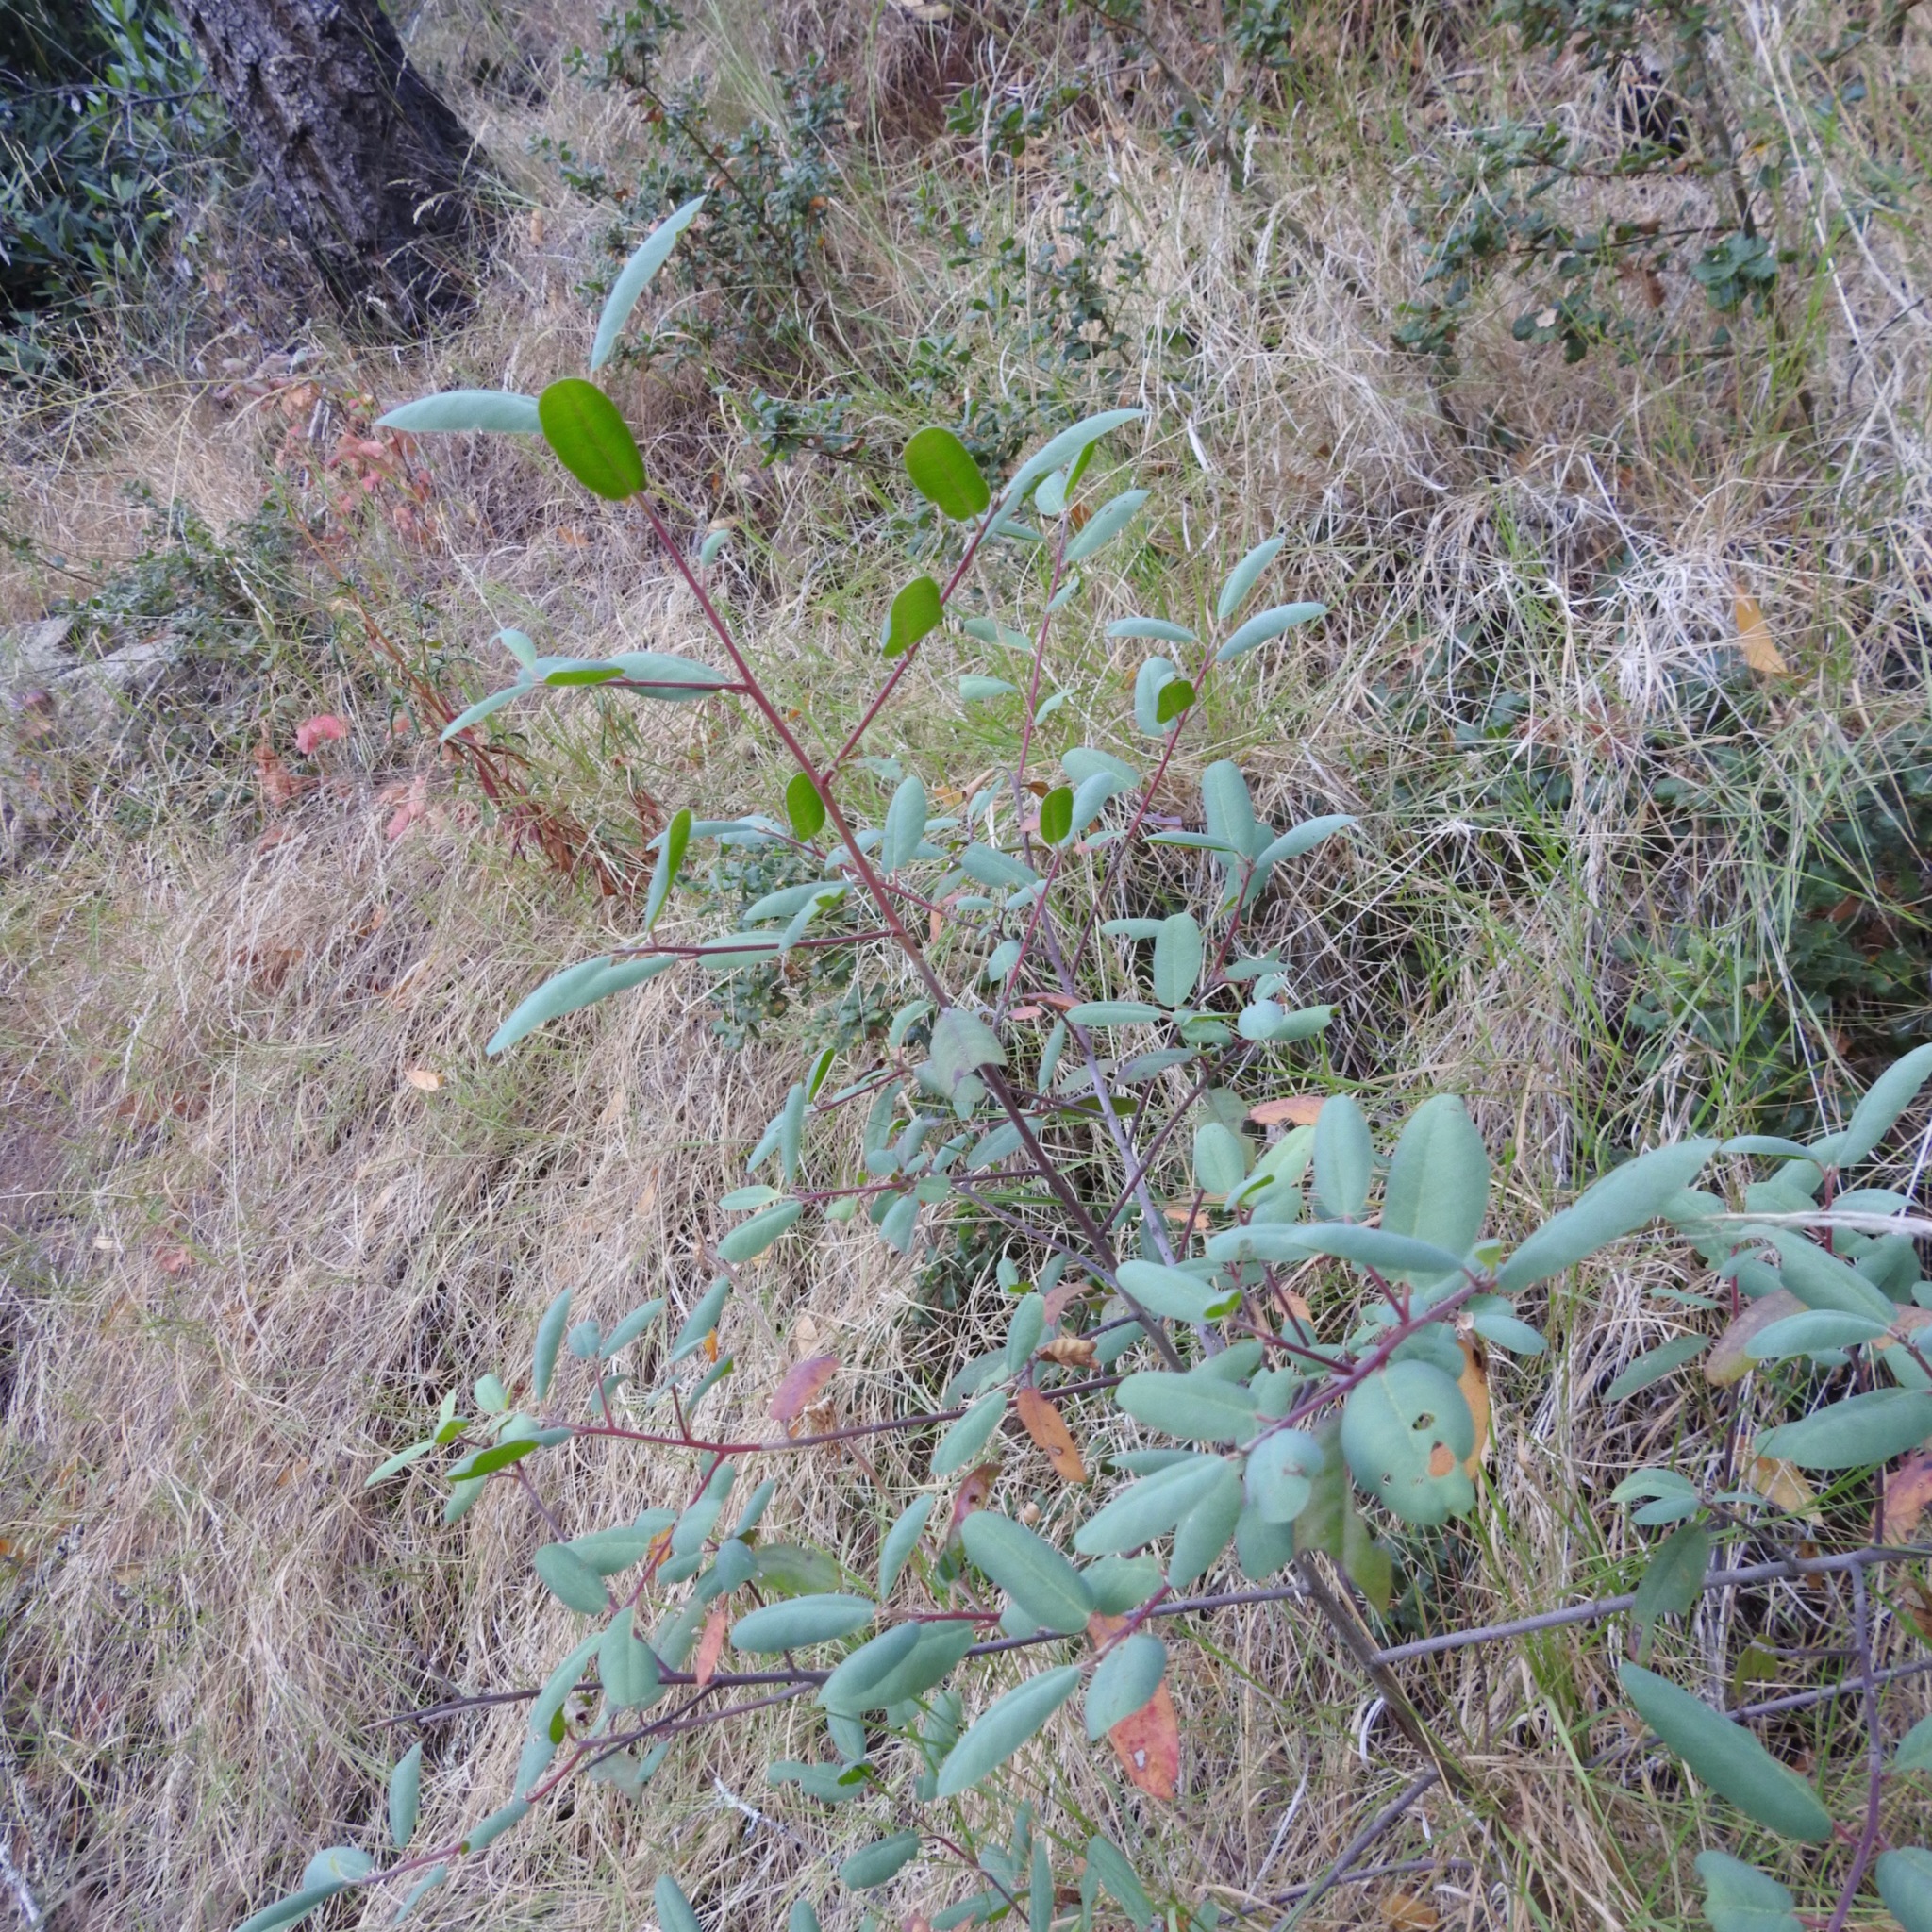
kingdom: Plantae
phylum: Tracheophyta
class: Magnoliopsida
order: Rosales
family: Rhamnaceae
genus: Frangula
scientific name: Frangula californica
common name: California buckthorn
